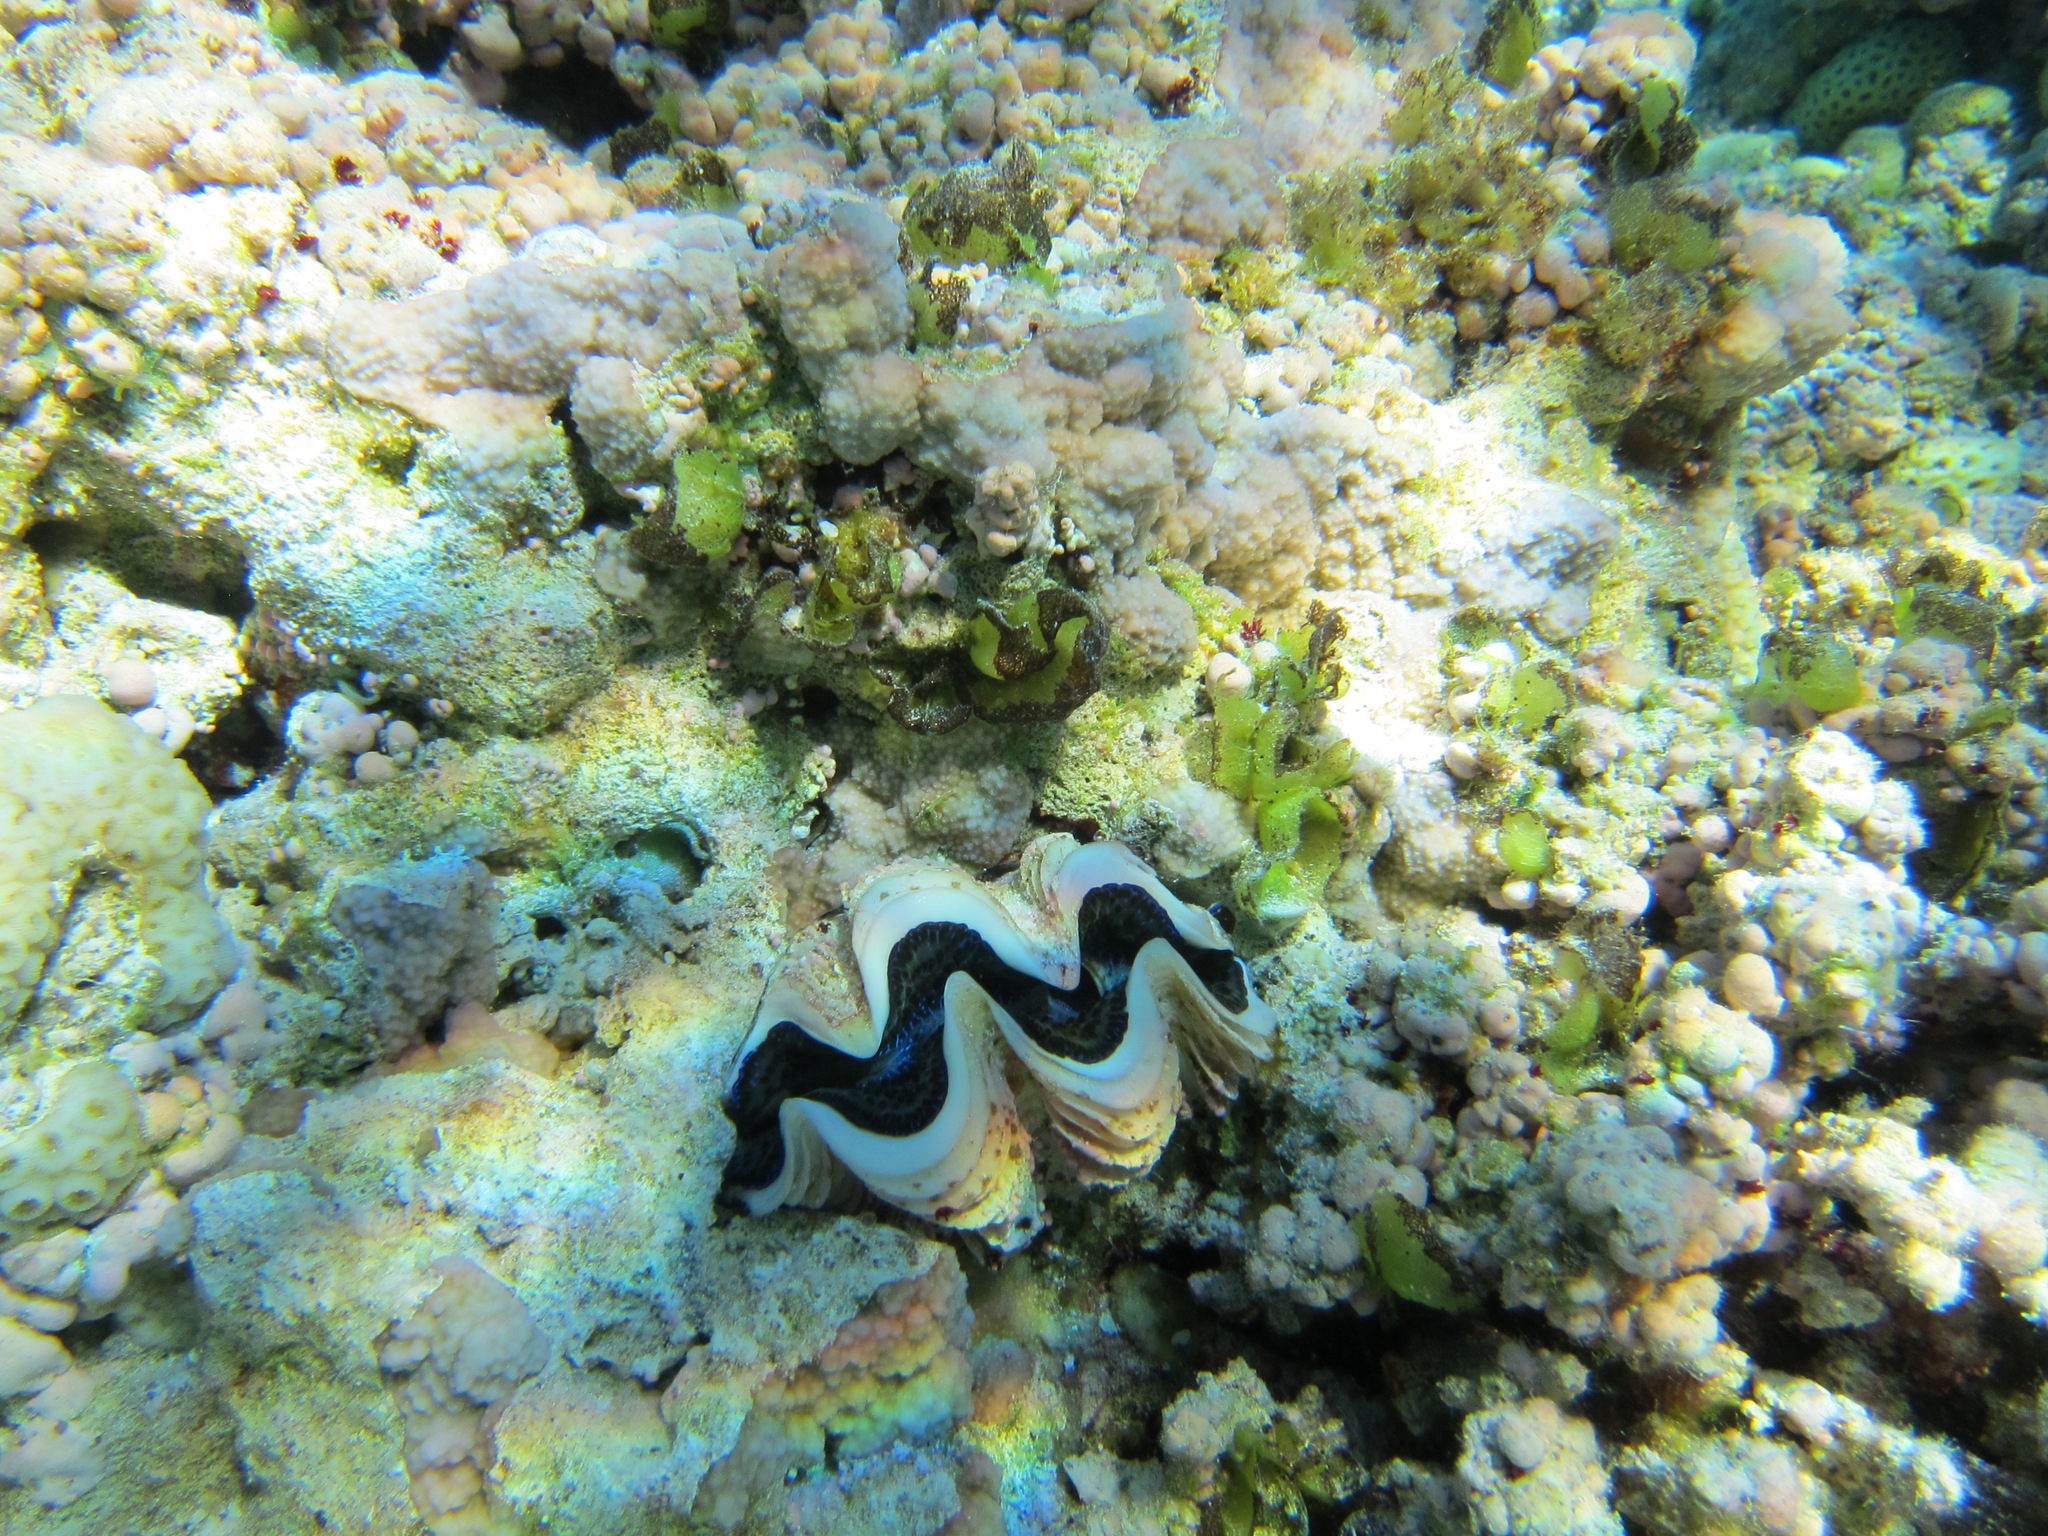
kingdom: Animalia
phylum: Mollusca
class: Bivalvia
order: Cardiida
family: Cardiidae
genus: Tridacna
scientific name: Tridacna maxima
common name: Small giant clam
